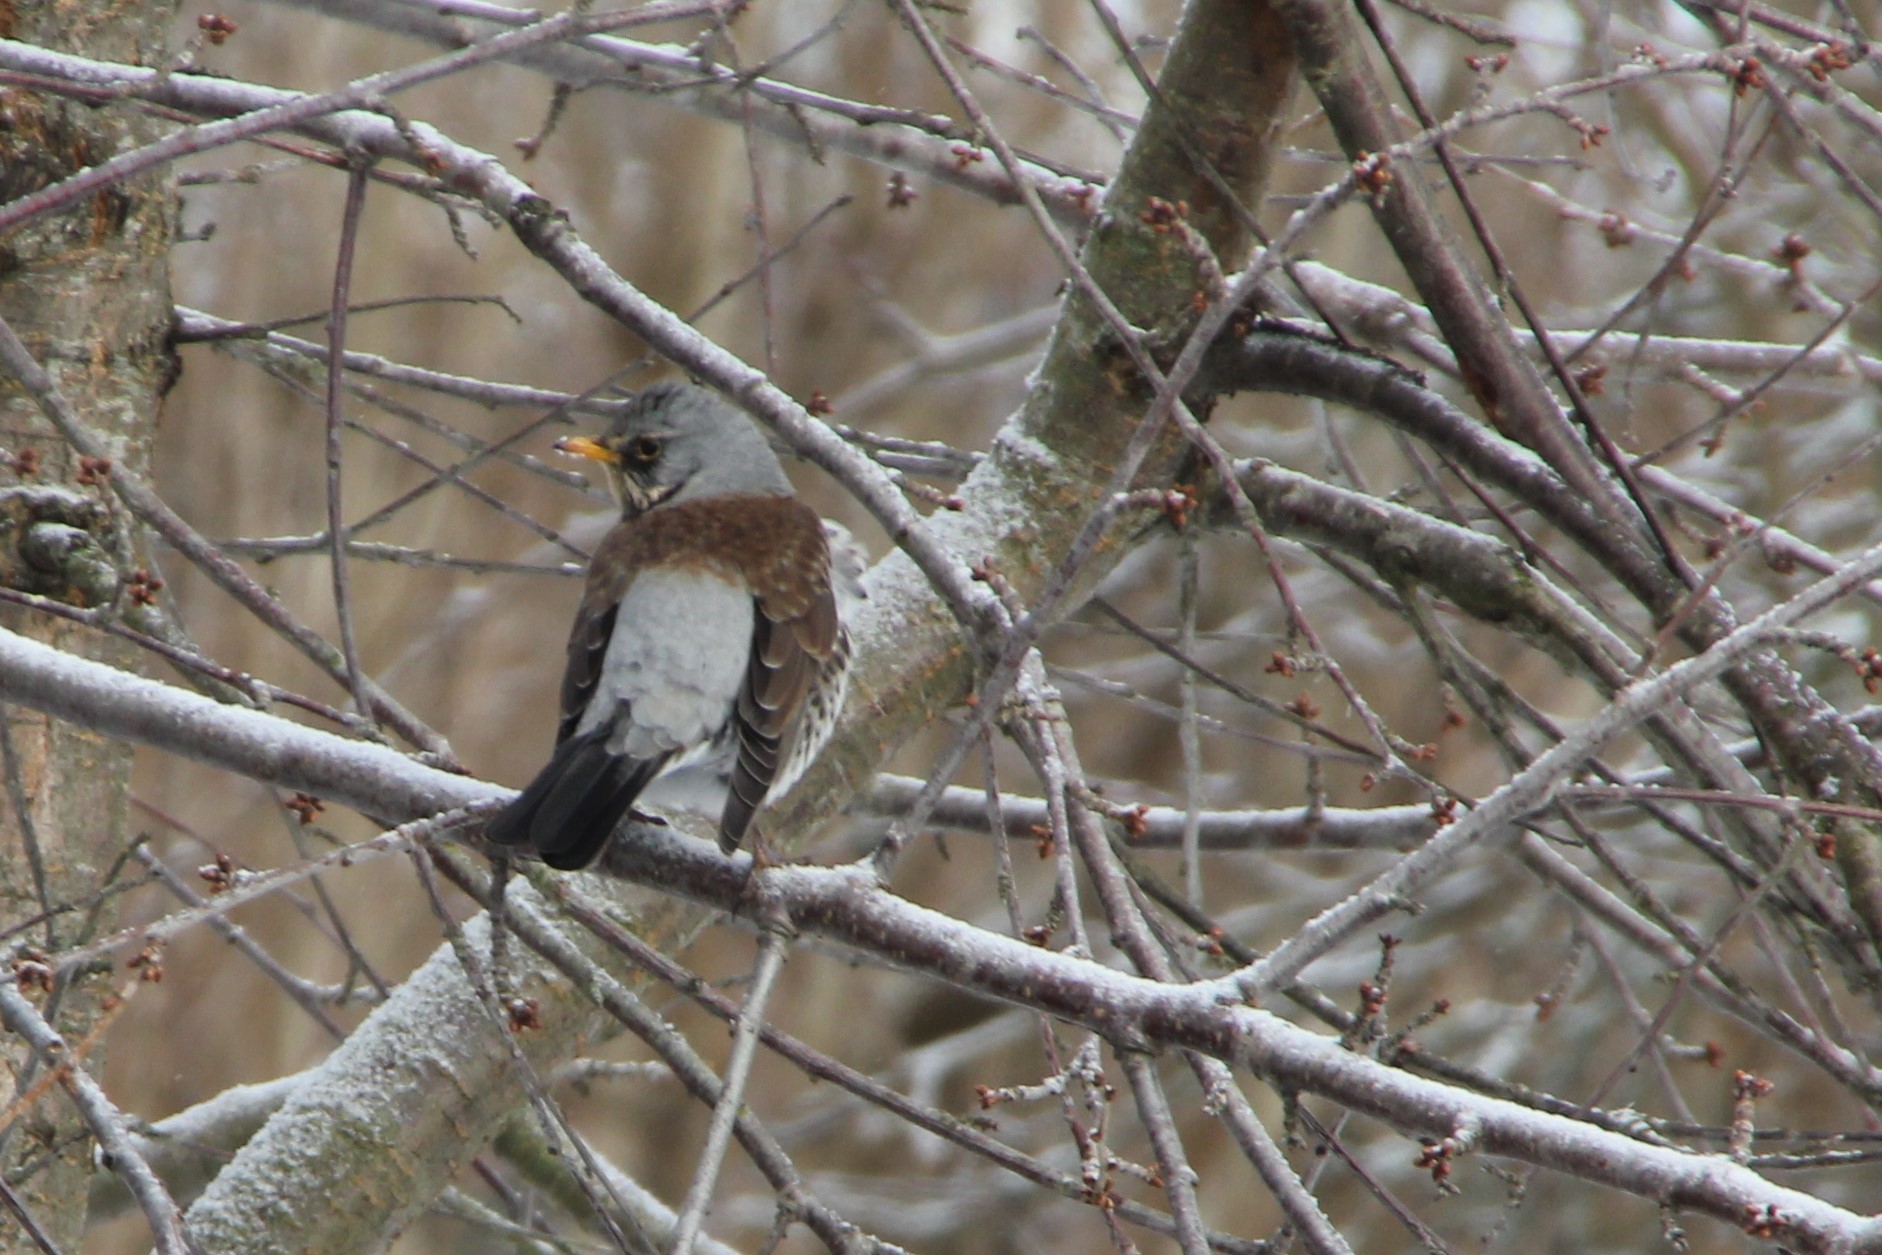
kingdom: Animalia
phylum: Chordata
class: Aves
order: Passeriformes
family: Turdidae
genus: Turdus
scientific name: Turdus pilaris
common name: Fieldfare
